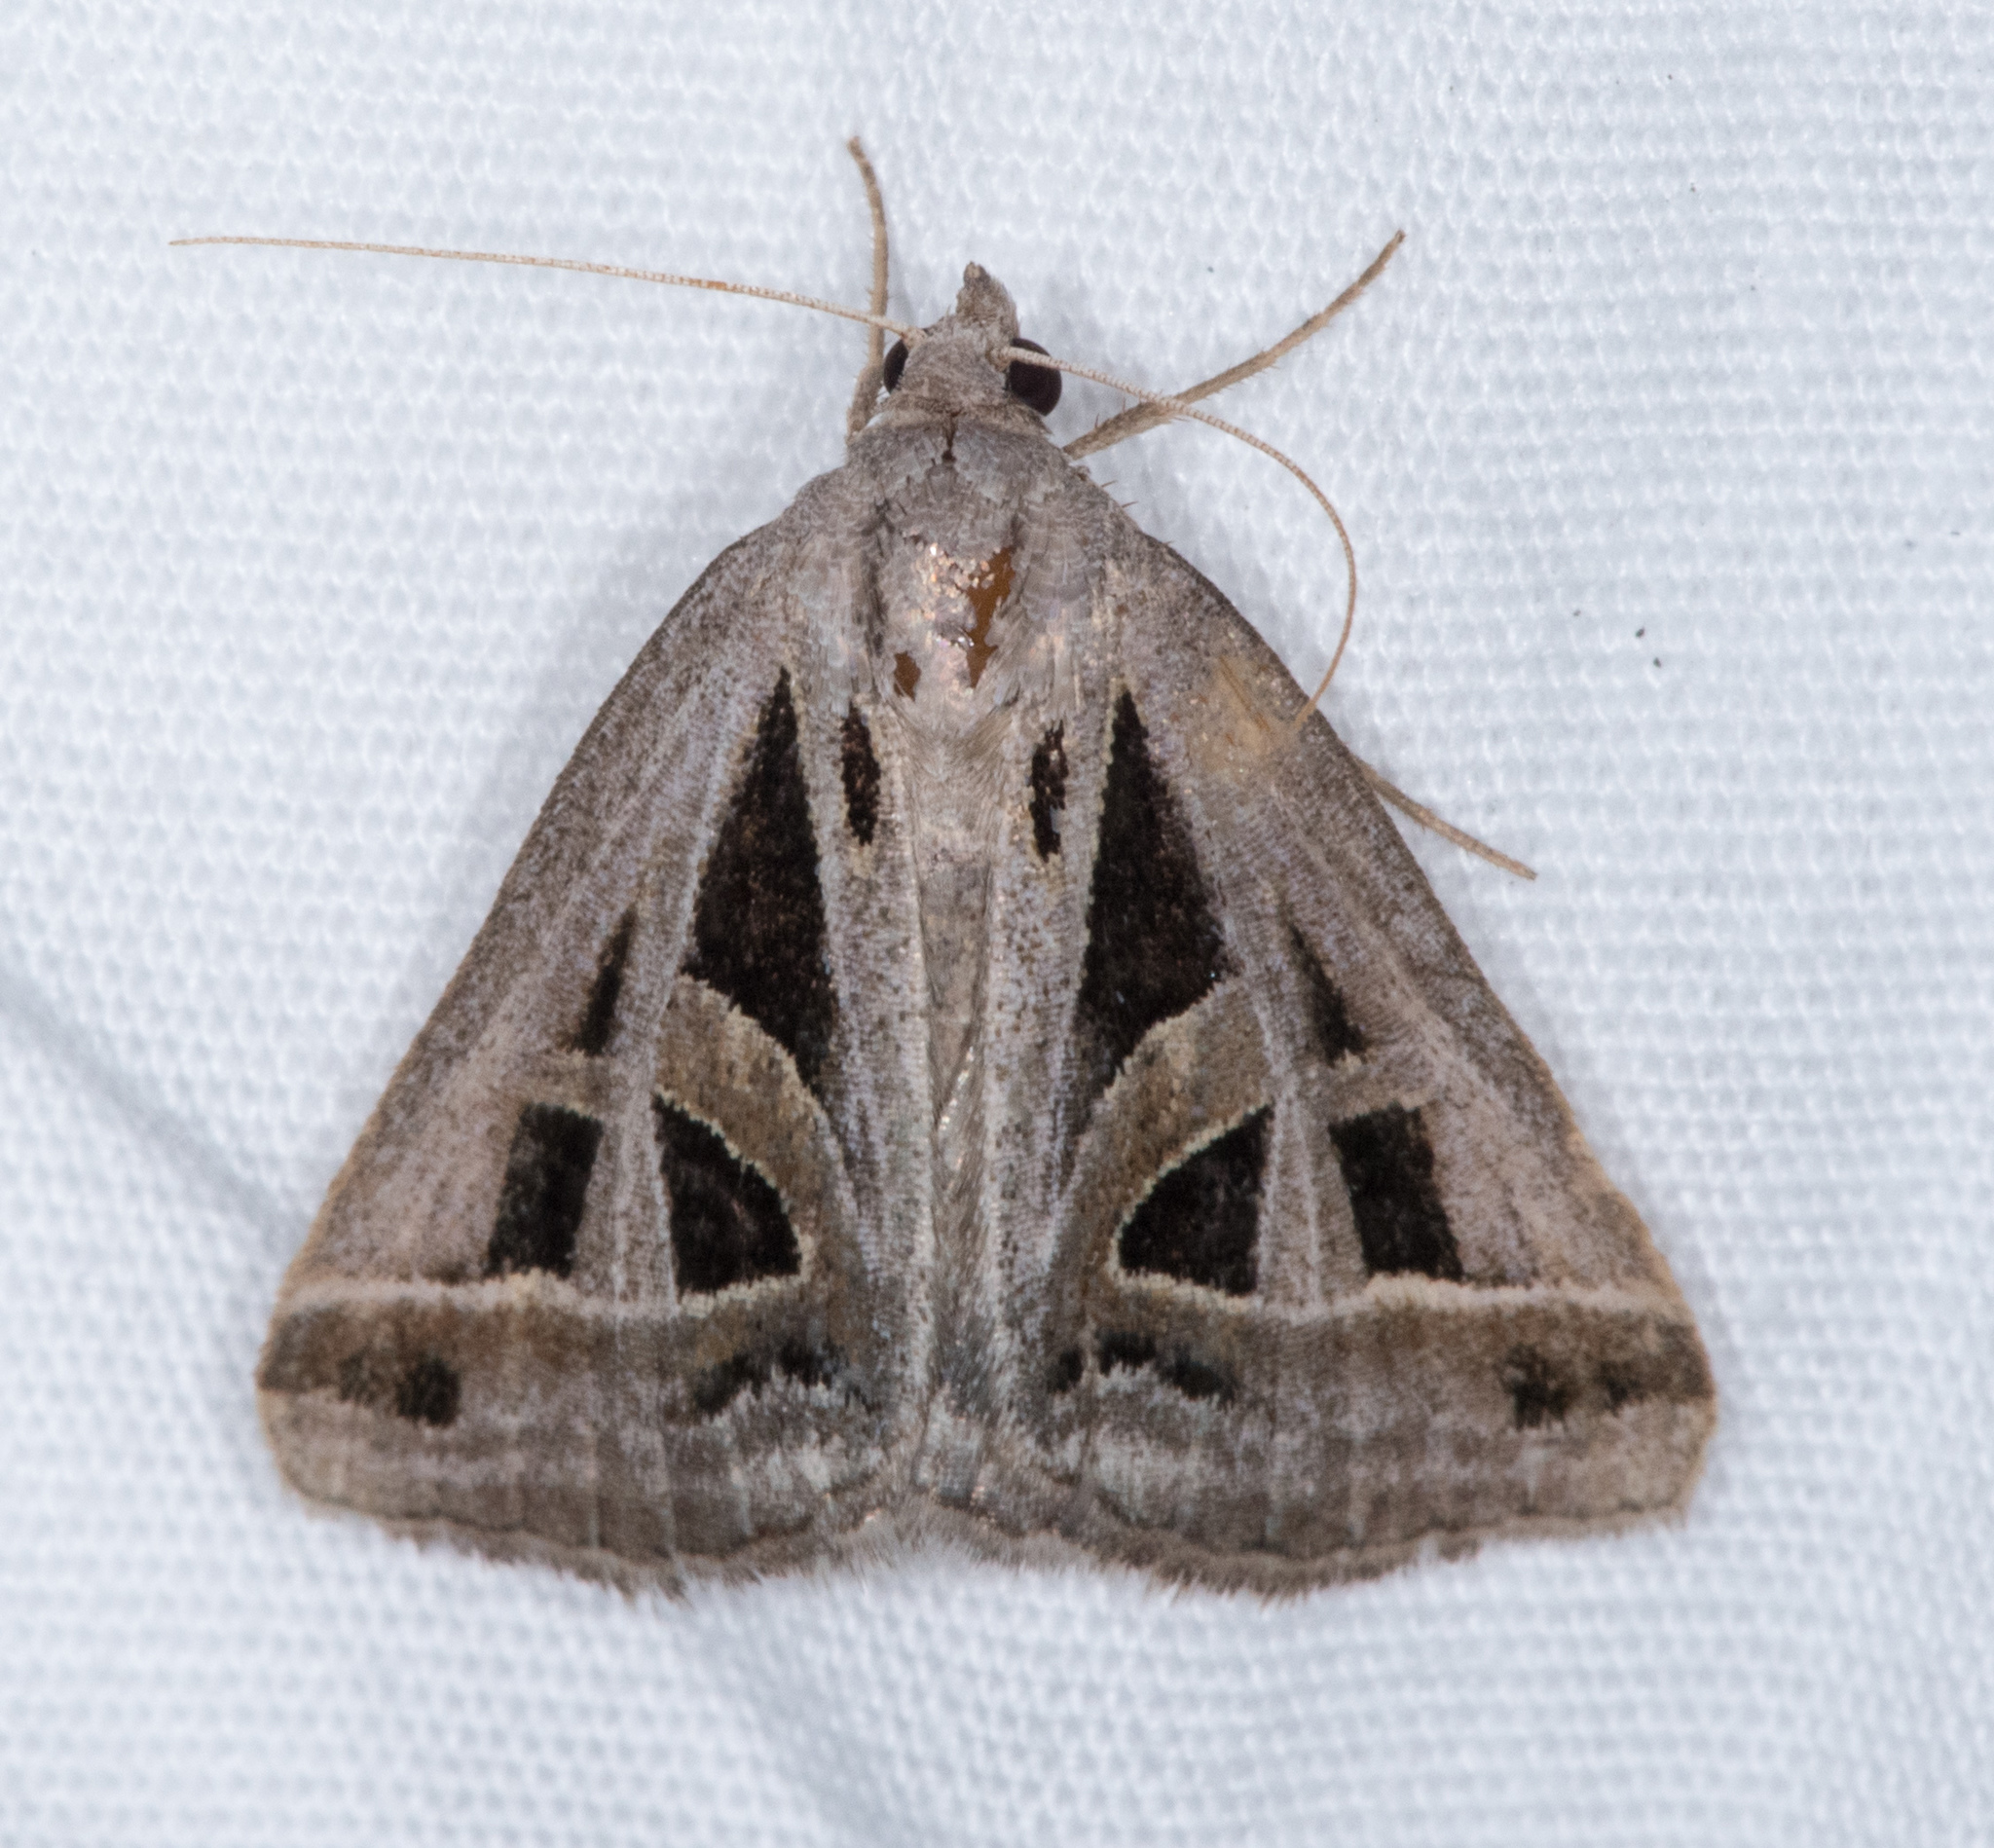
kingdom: Animalia
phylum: Arthropoda
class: Insecta
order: Lepidoptera
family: Erebidae
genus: Callistege
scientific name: Callistege diagonalis
